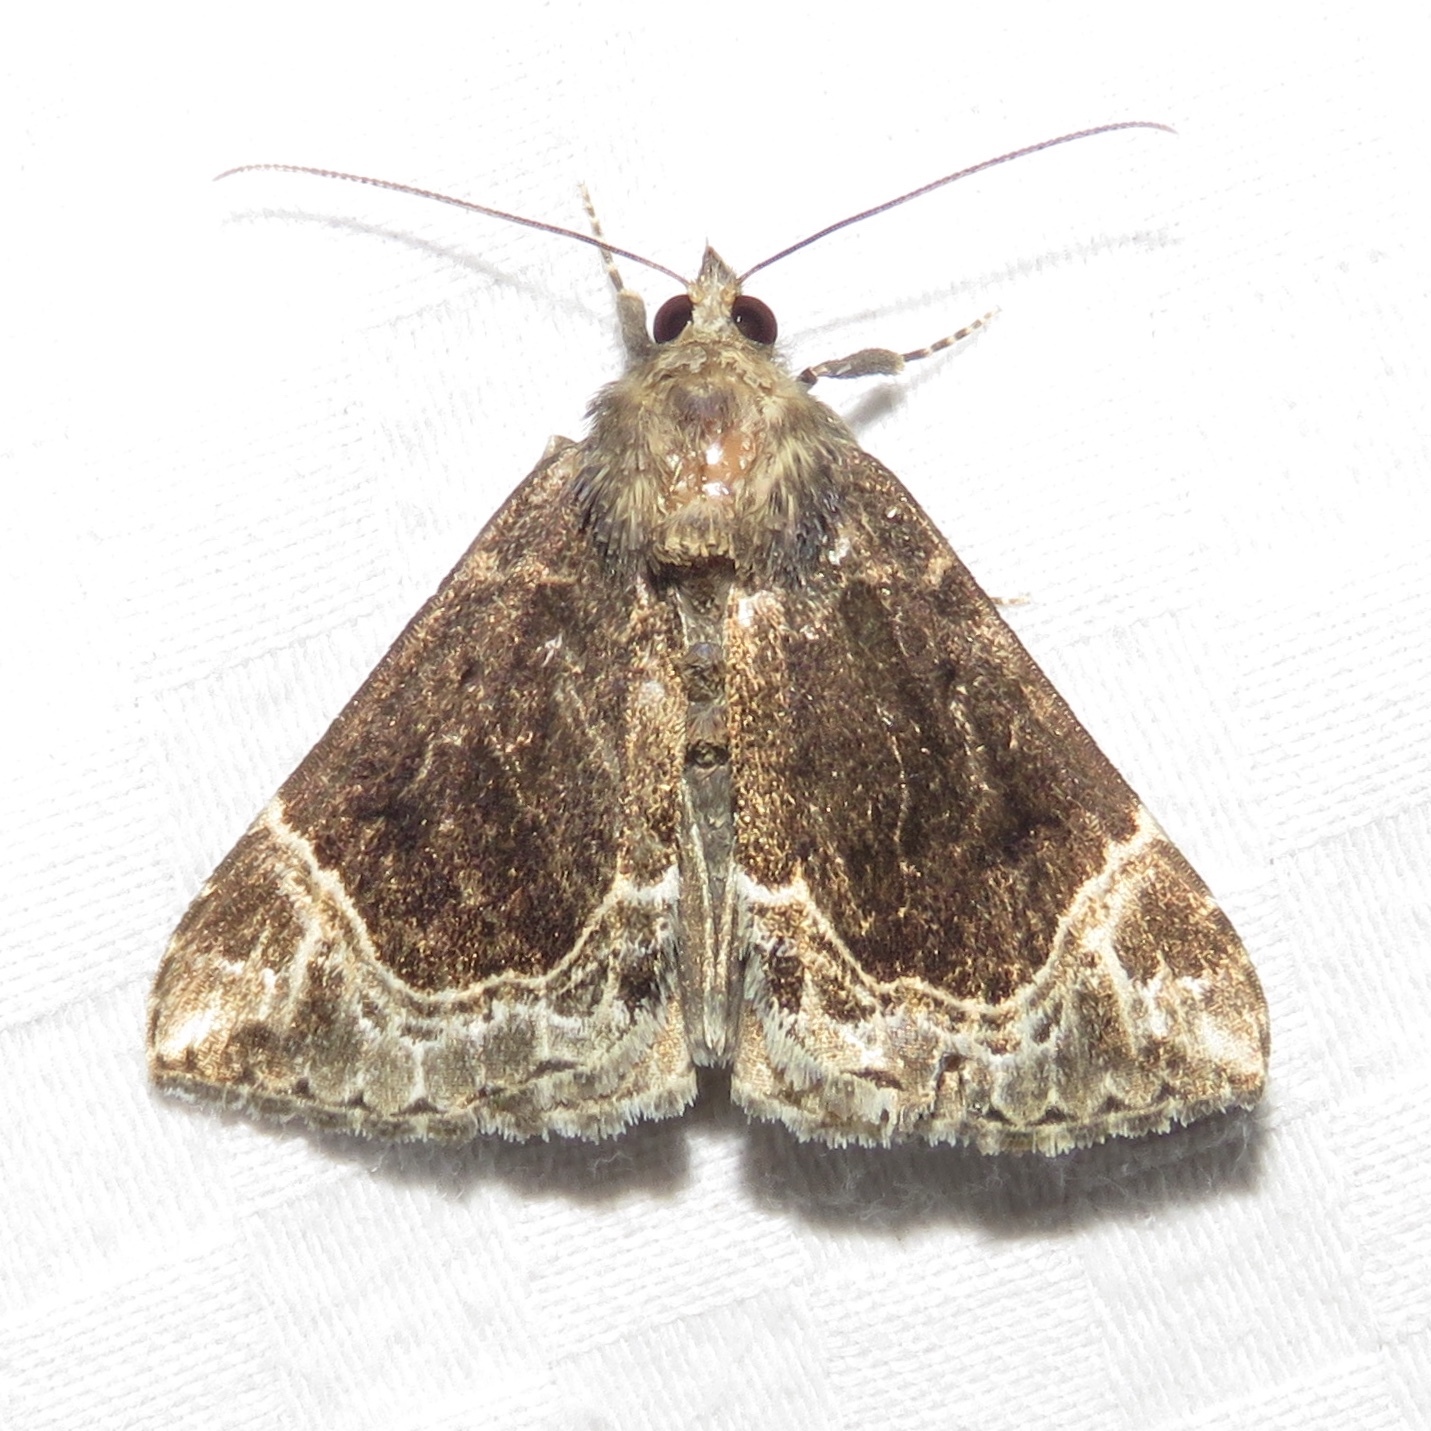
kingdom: Animalia
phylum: Arthropoda
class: Insecta
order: Lepidoptera
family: Erebidae
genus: Hypena
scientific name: Hypena abalienalis
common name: White-lined snout
